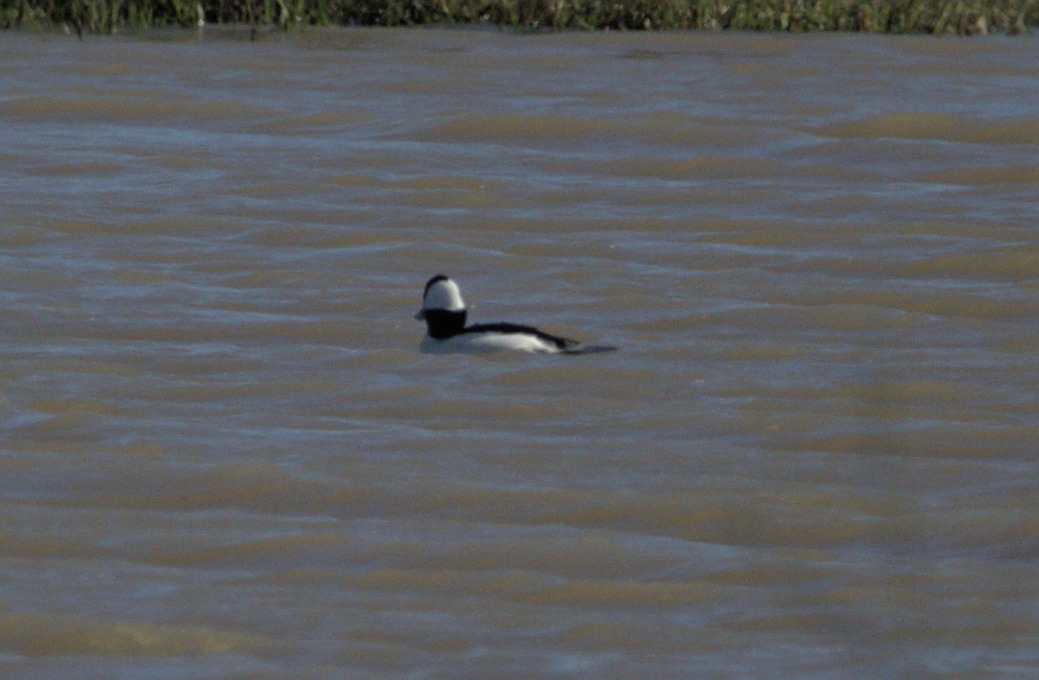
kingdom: Animalia
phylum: Chordata
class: Aves
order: Anseriformes
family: Anatidae
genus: Bucephala
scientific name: Bucephala albeola
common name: Bufflehead
